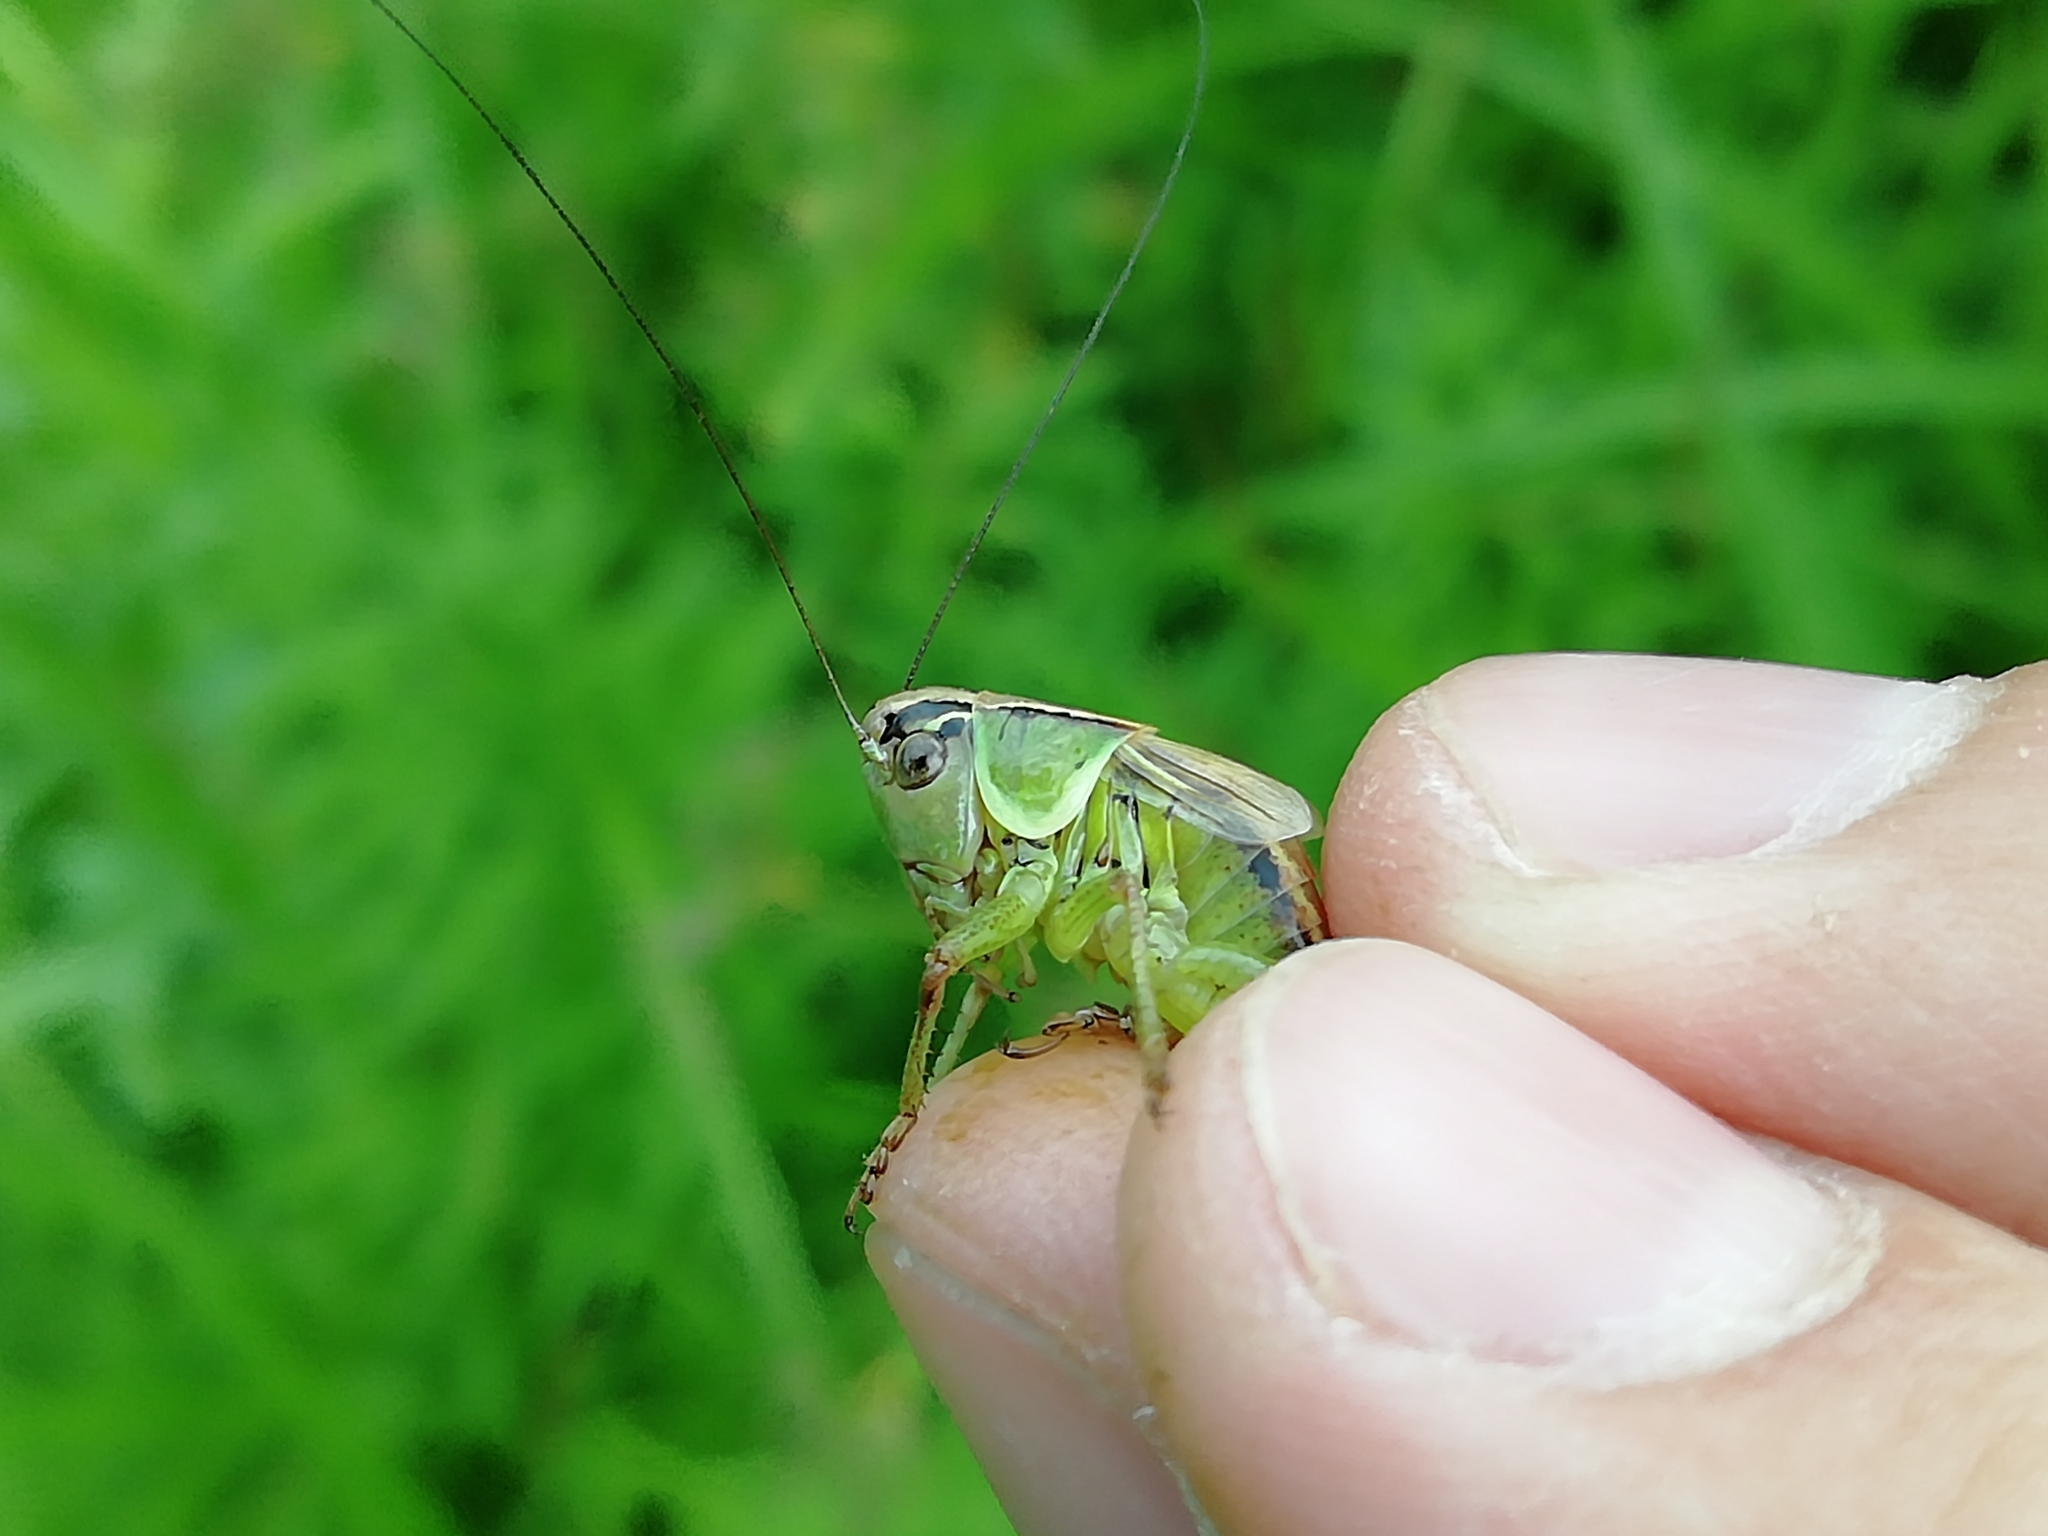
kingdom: Animalia
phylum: Arthropoda
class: Insecta
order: Orthoptera
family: Tettigoniidae
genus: Roeseliana
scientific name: Roeseliana roeselii
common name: Roesel's bush cricket
